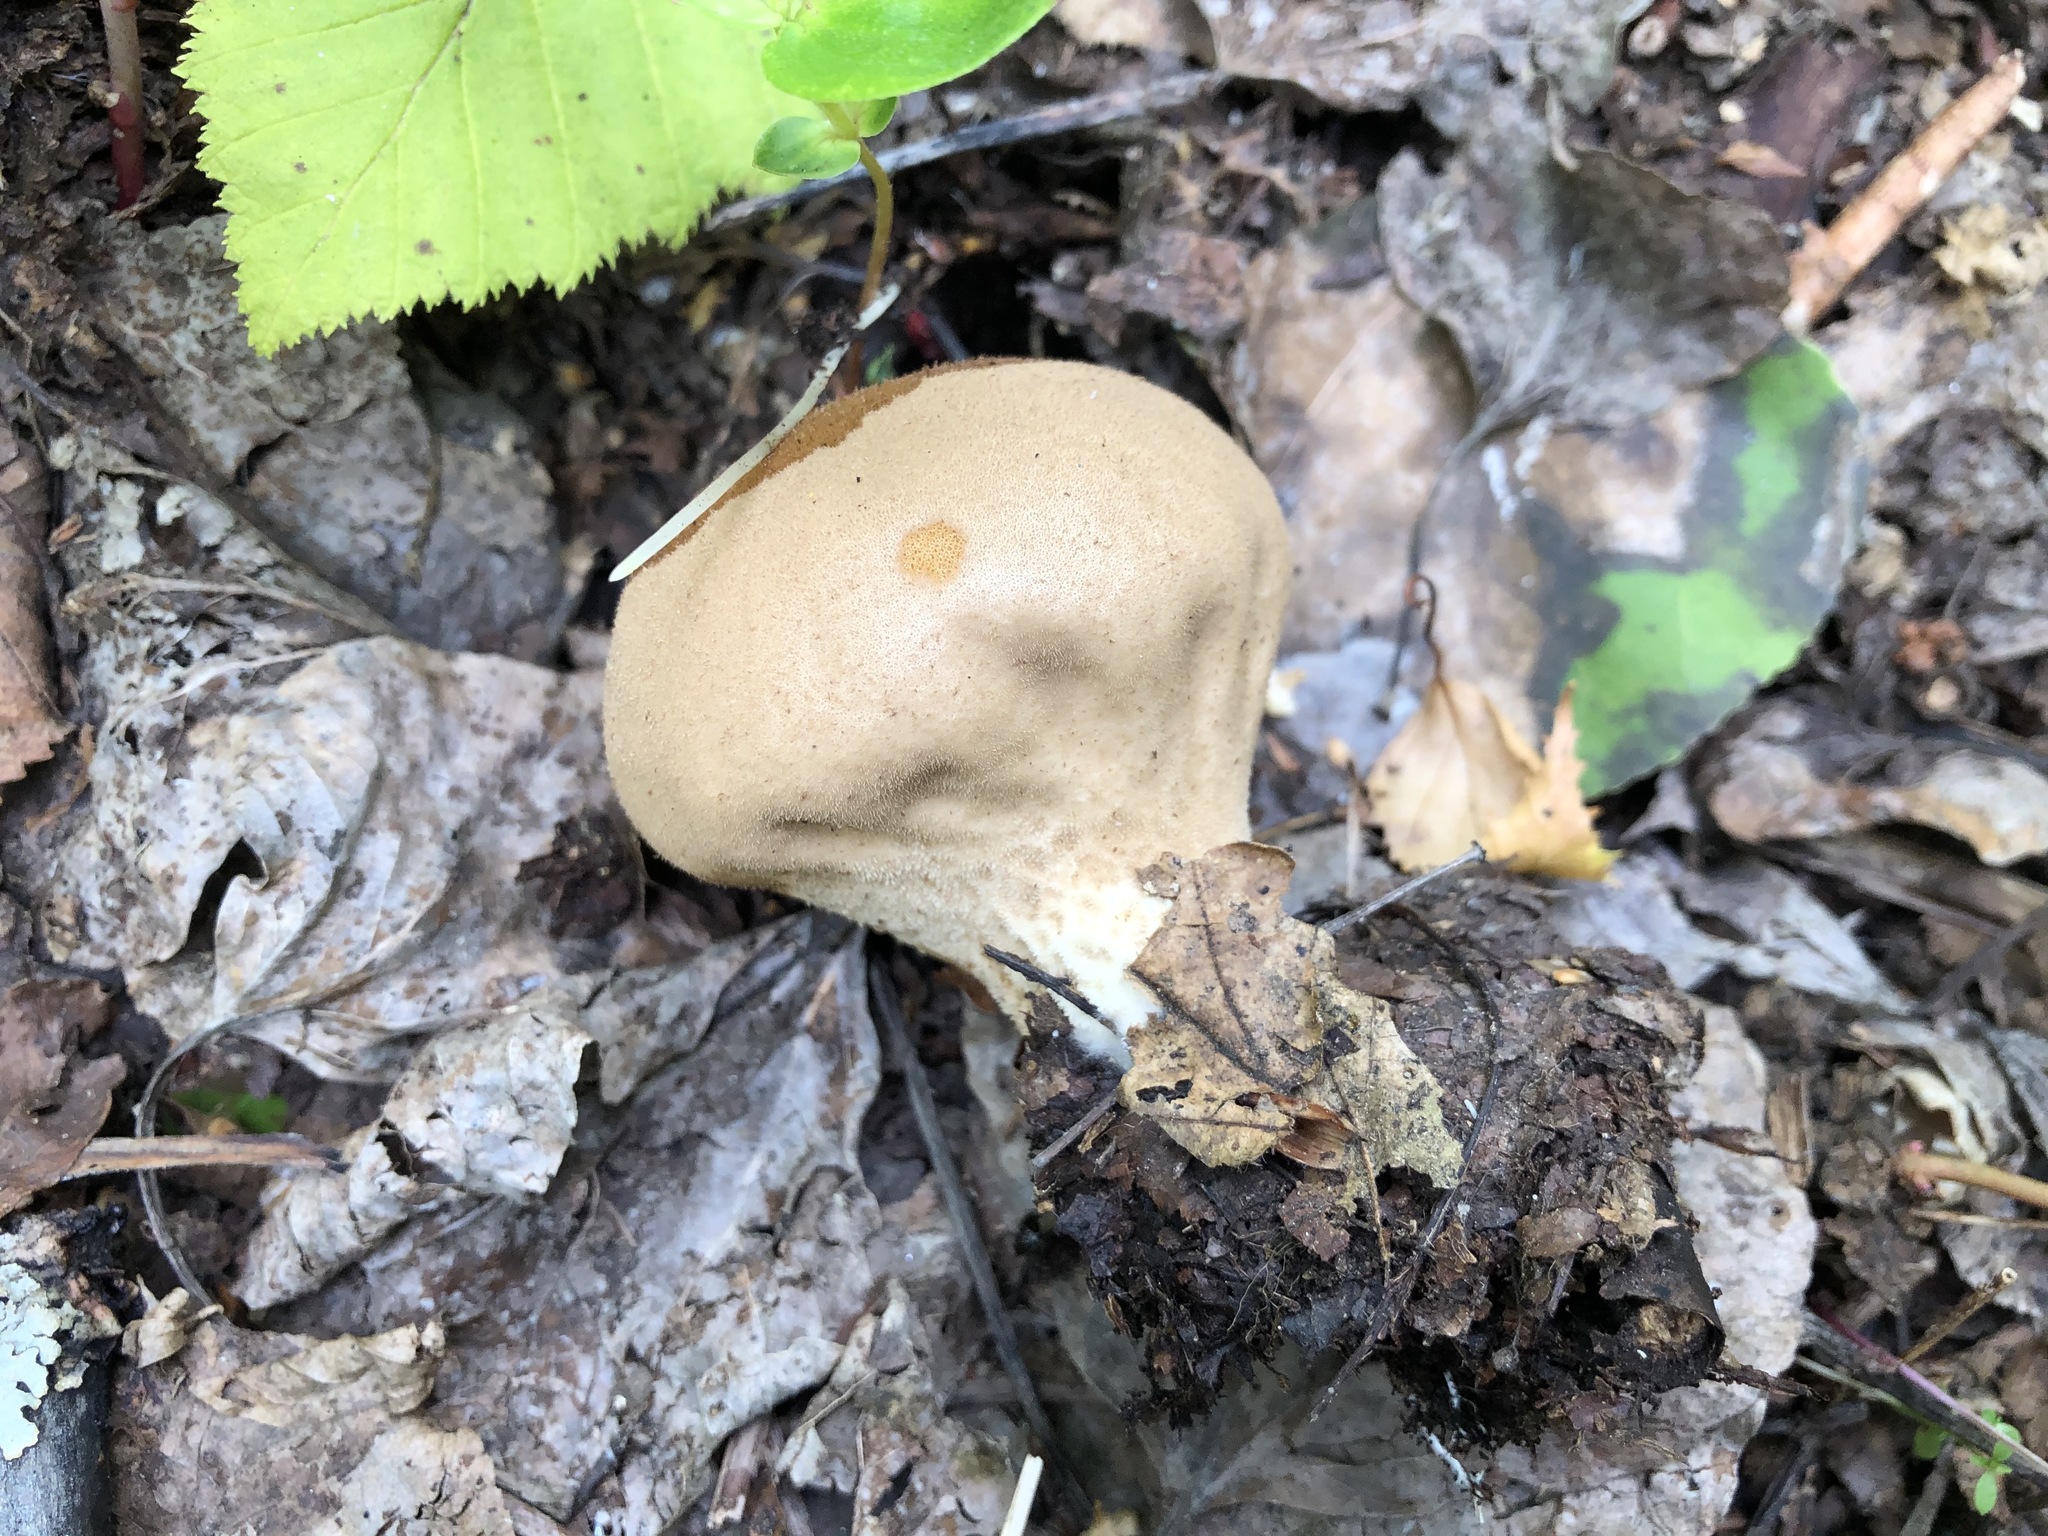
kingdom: Fungi
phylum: Basidiomycota
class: Agaricomycetes
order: Agaricales
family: Lycoperdaceae
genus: Apioperdon
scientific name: Apioperdon pyriforme
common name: Pear-shaped puffball
